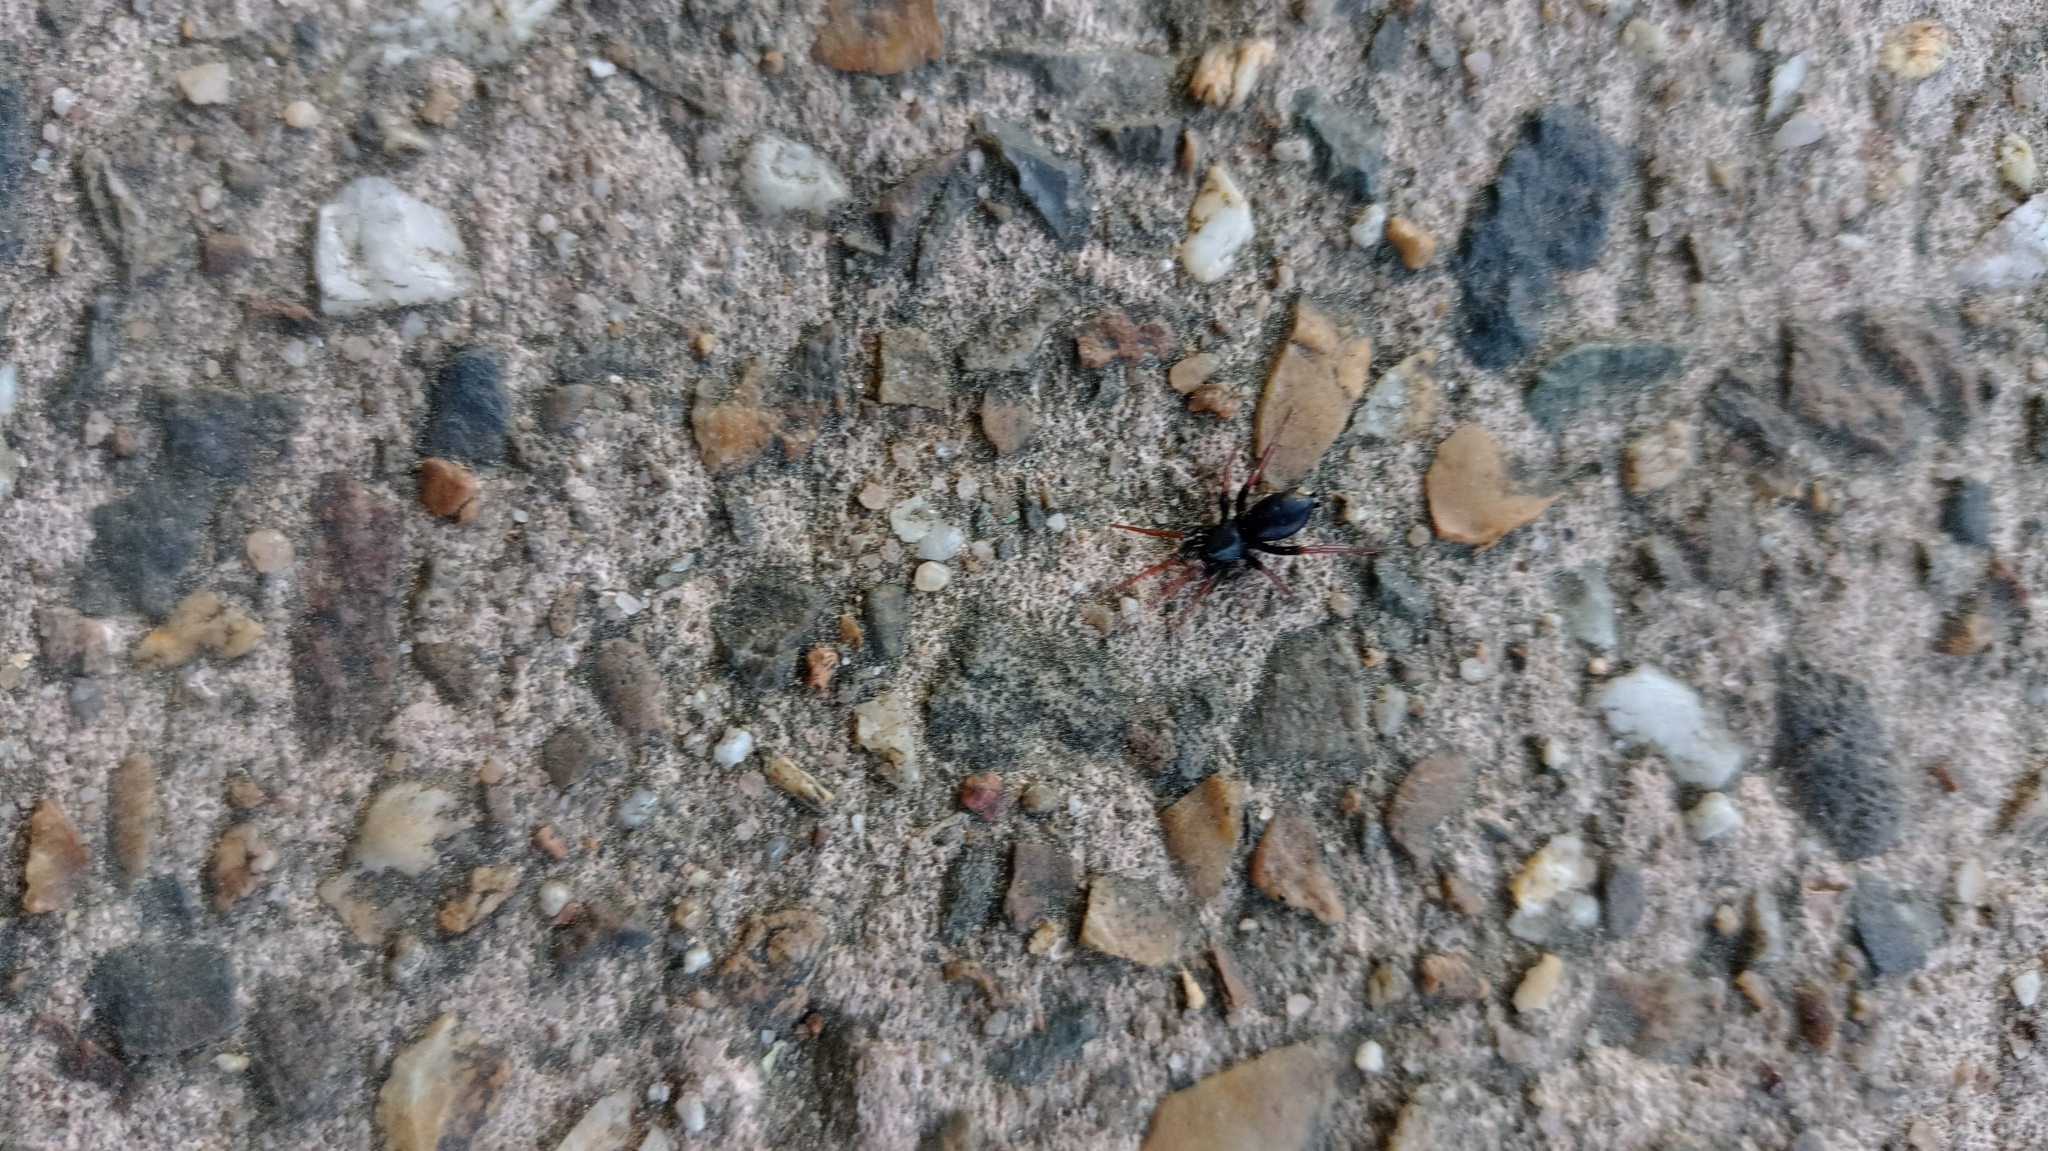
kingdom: Animalia
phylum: Arthropoda
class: Arachnida
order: Araneae
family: Gnaphosidae
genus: Trachyzelotes
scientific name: Trachyzelotes pedestris
